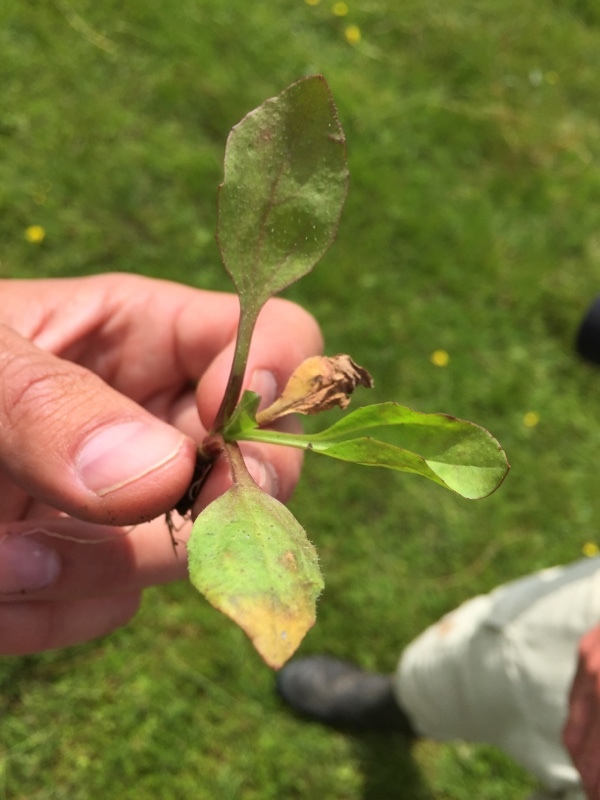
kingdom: Plantae
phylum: Tracheophyta
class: Magnoliopsida
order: Lamiales
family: Plantaginaceae
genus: Plantago
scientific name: Plantago uliginosa
